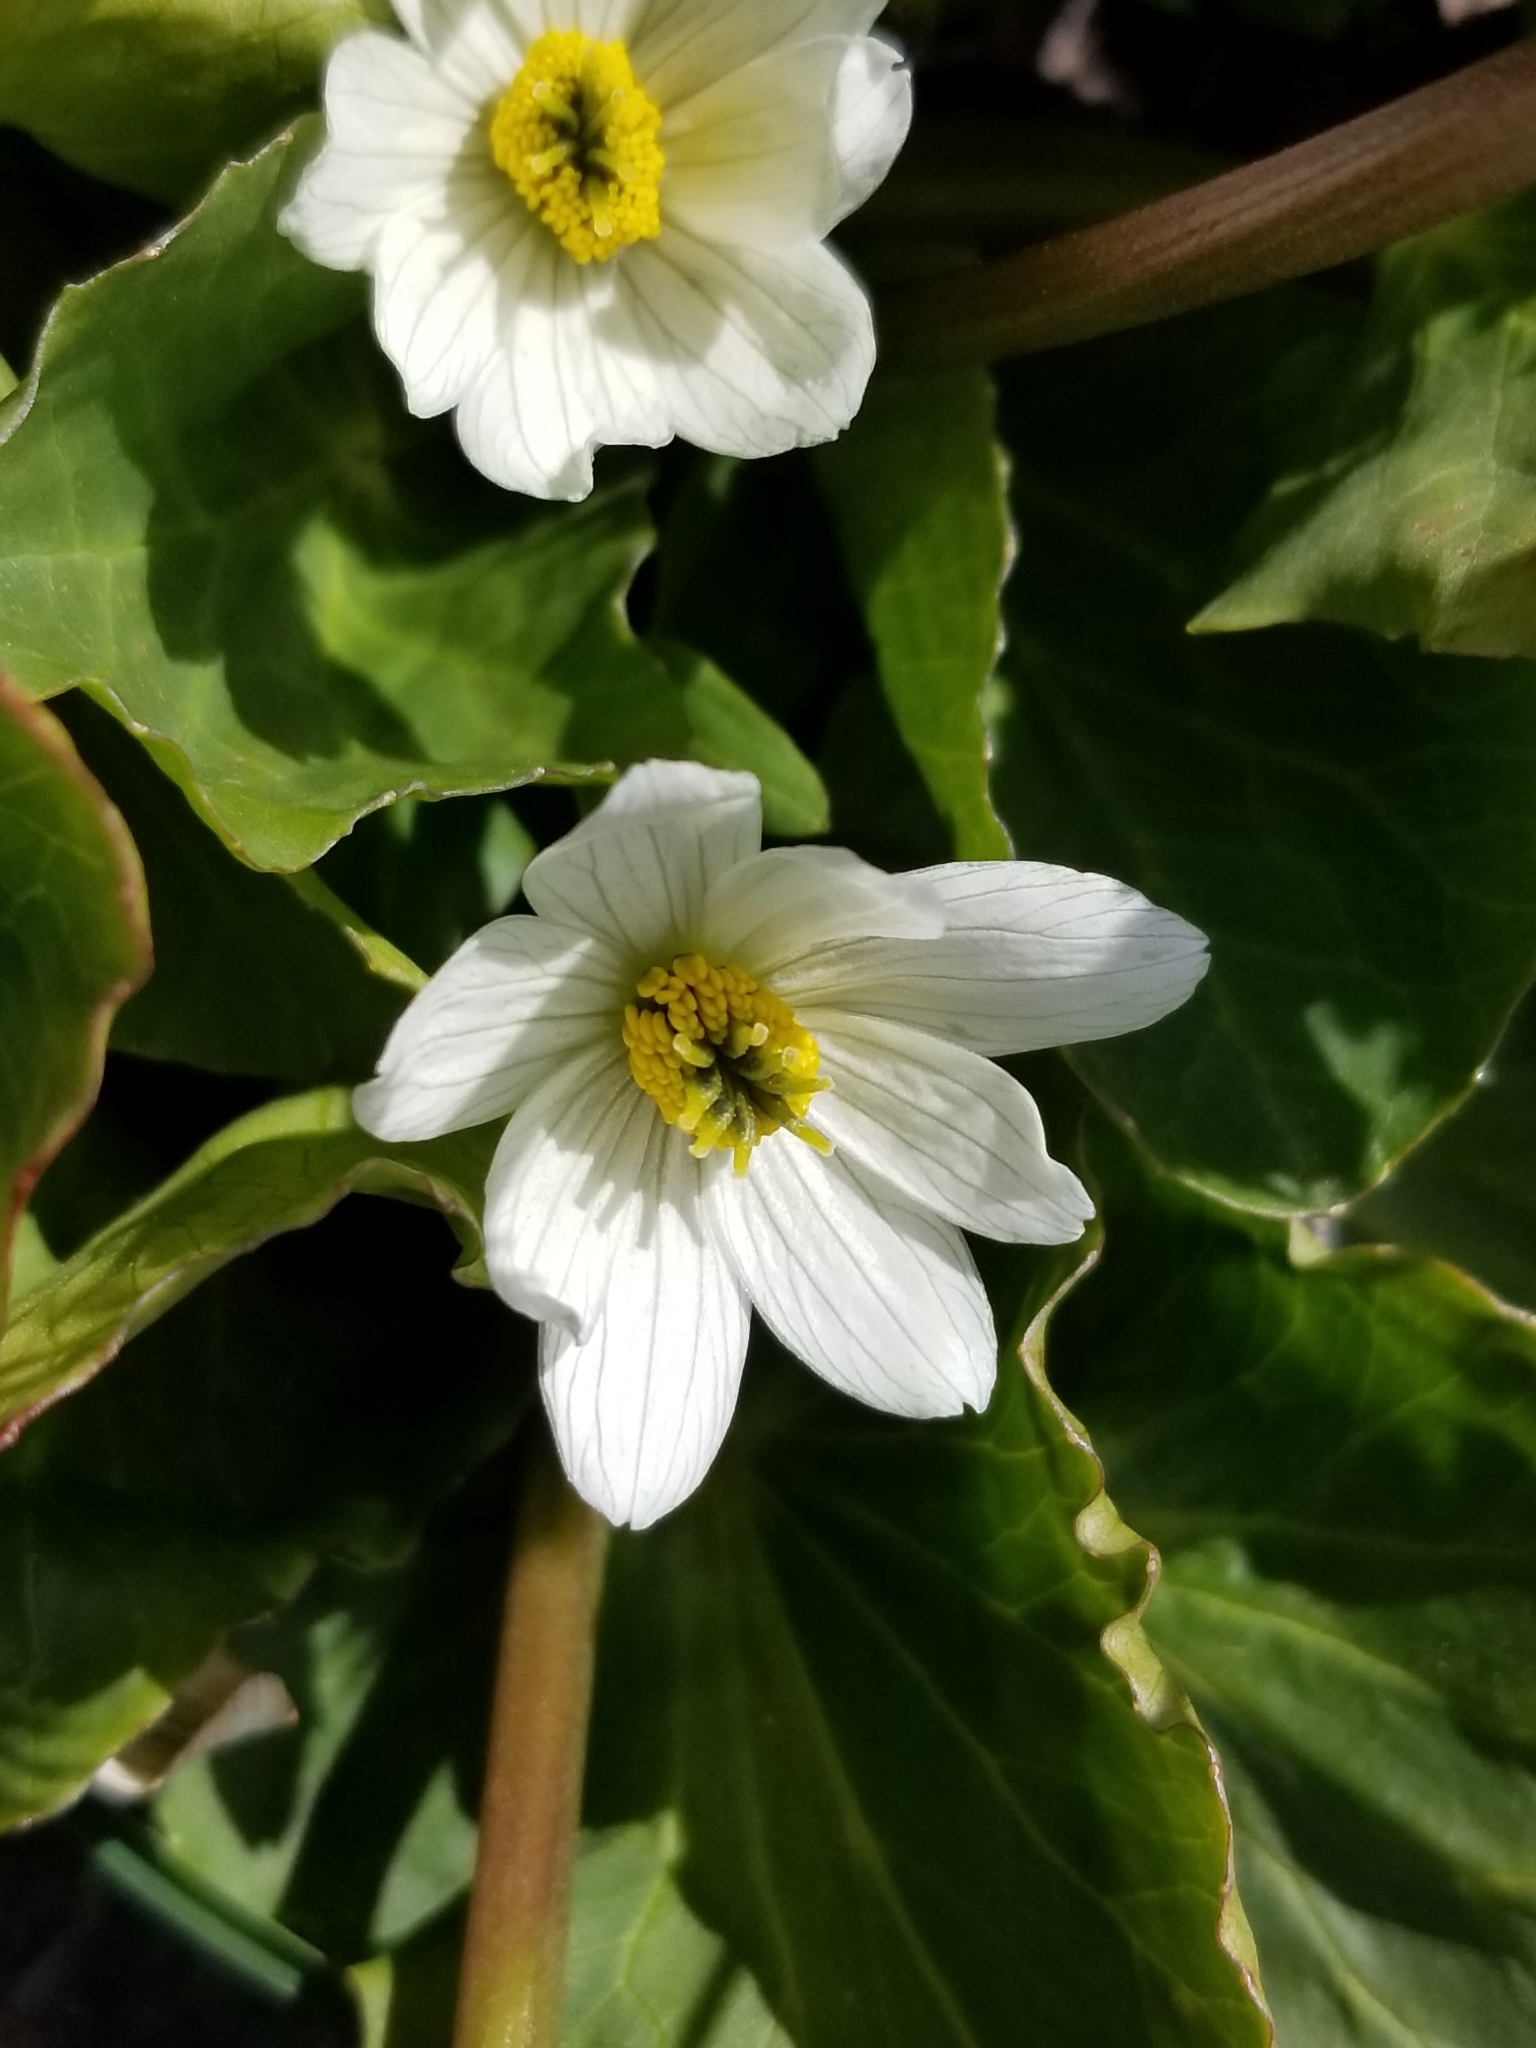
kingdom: Plantae
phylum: Tracheophyta
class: Magnoliopsida
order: Ranunculales
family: Ranunculaceae
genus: Caltha
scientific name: Caltha leptosepala
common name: Elkslip
